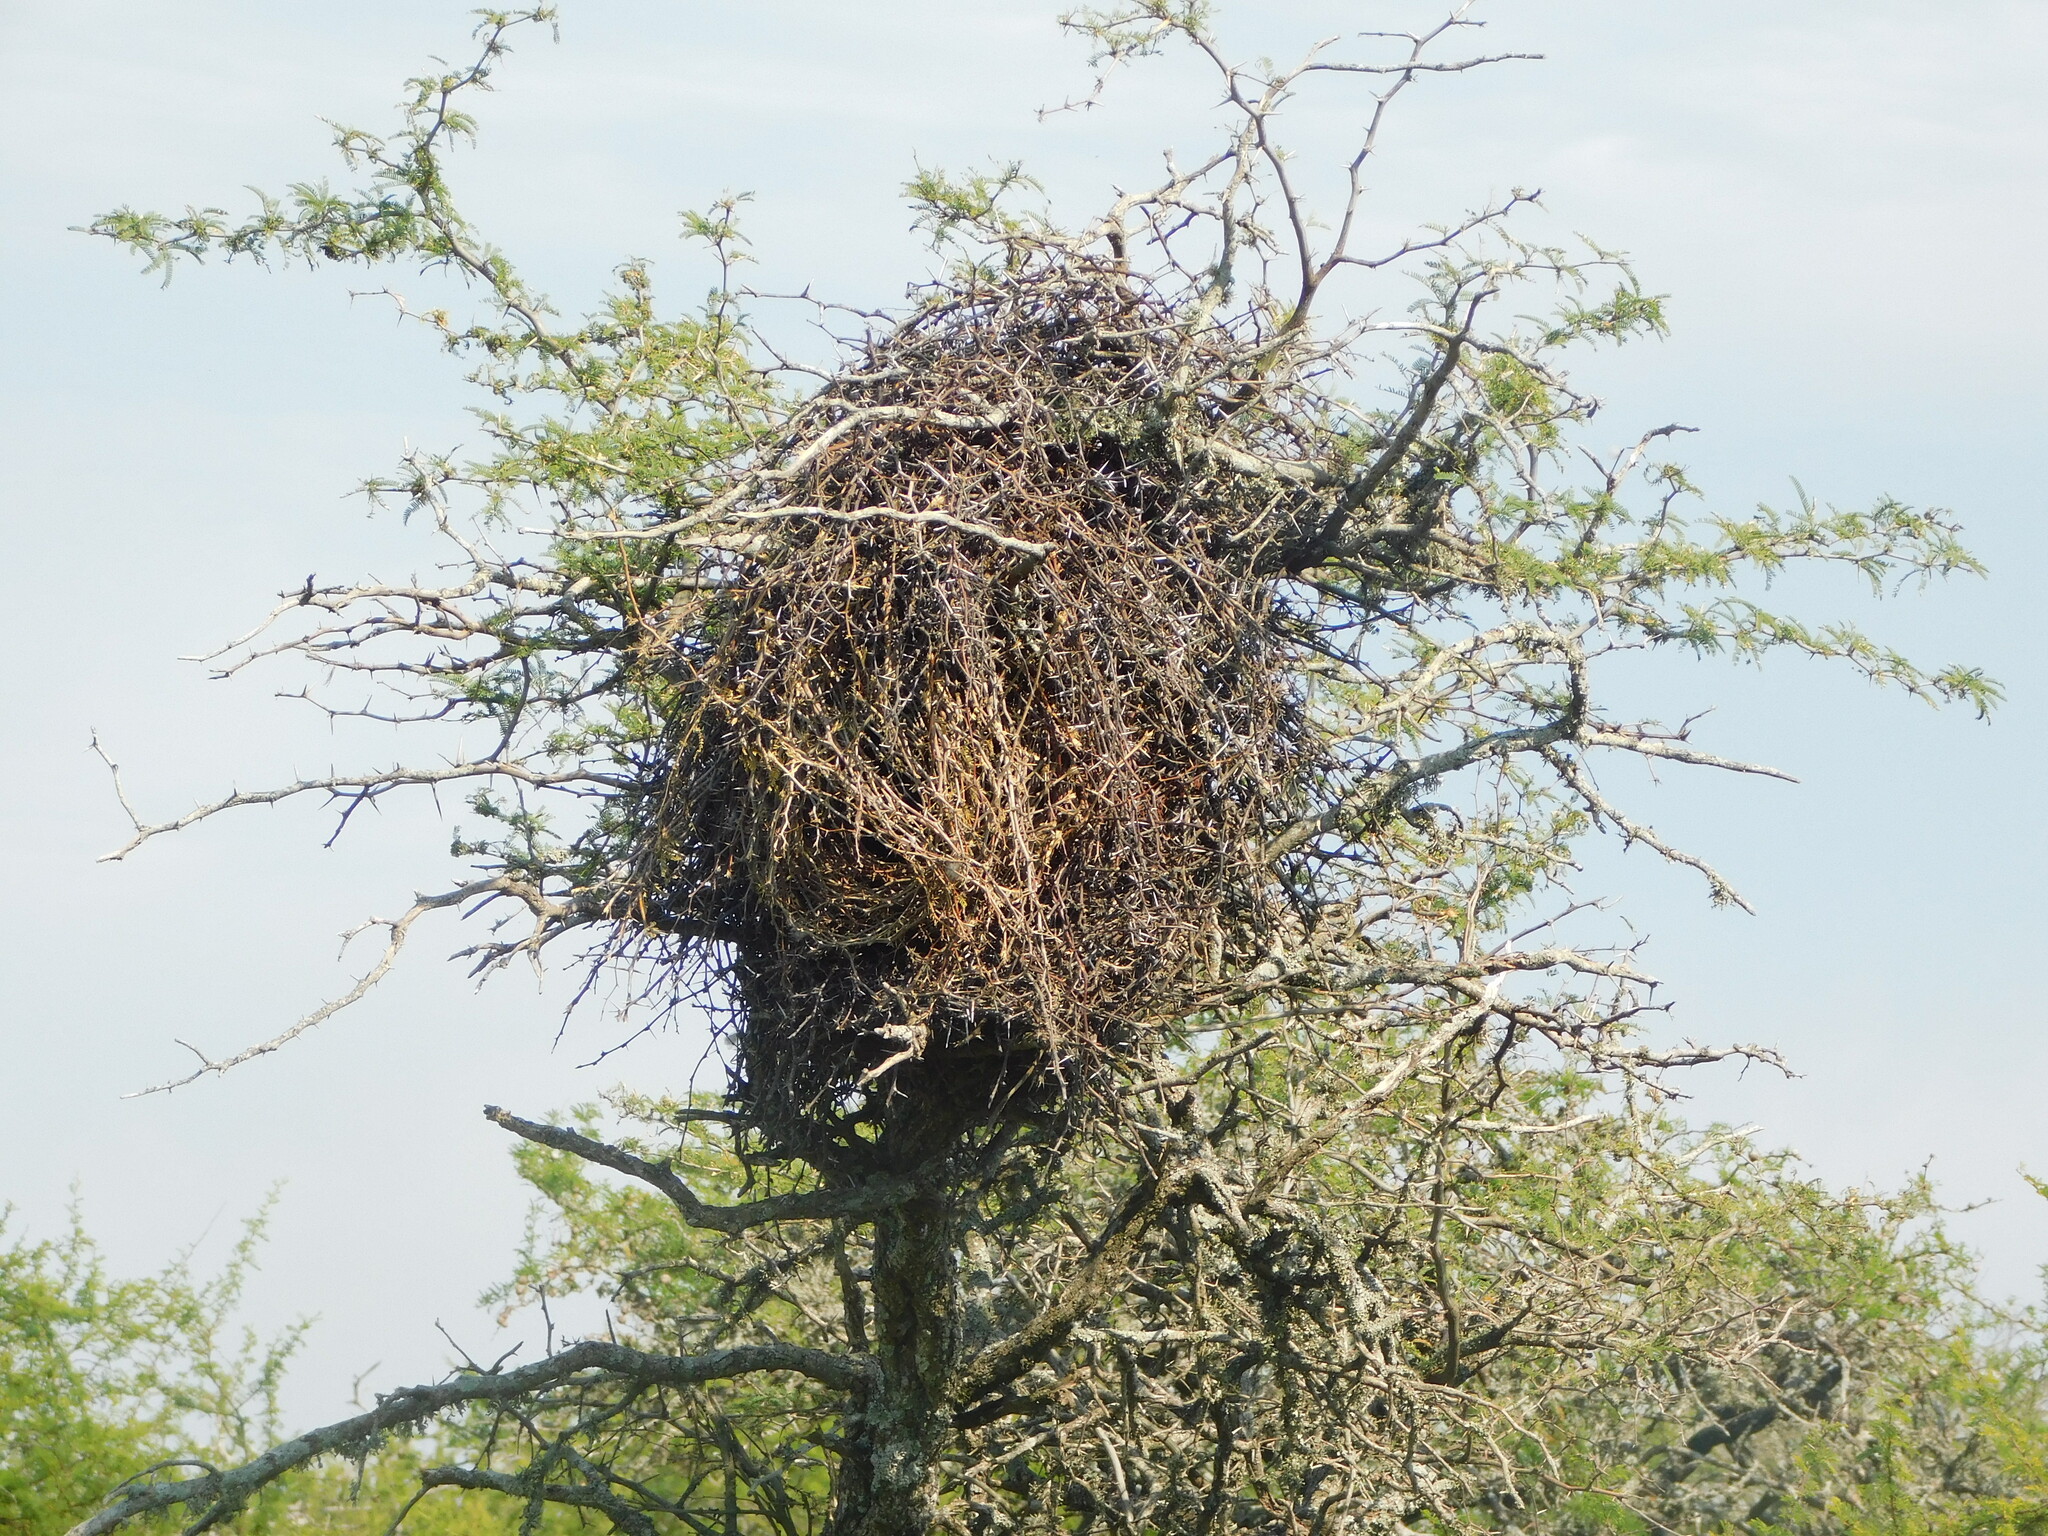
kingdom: Animalia
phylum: Chordata
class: Aves
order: Passeriformes
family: Furnariidae
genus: Anumbius
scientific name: Anumbius annumbi
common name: Firewood-gatherer
